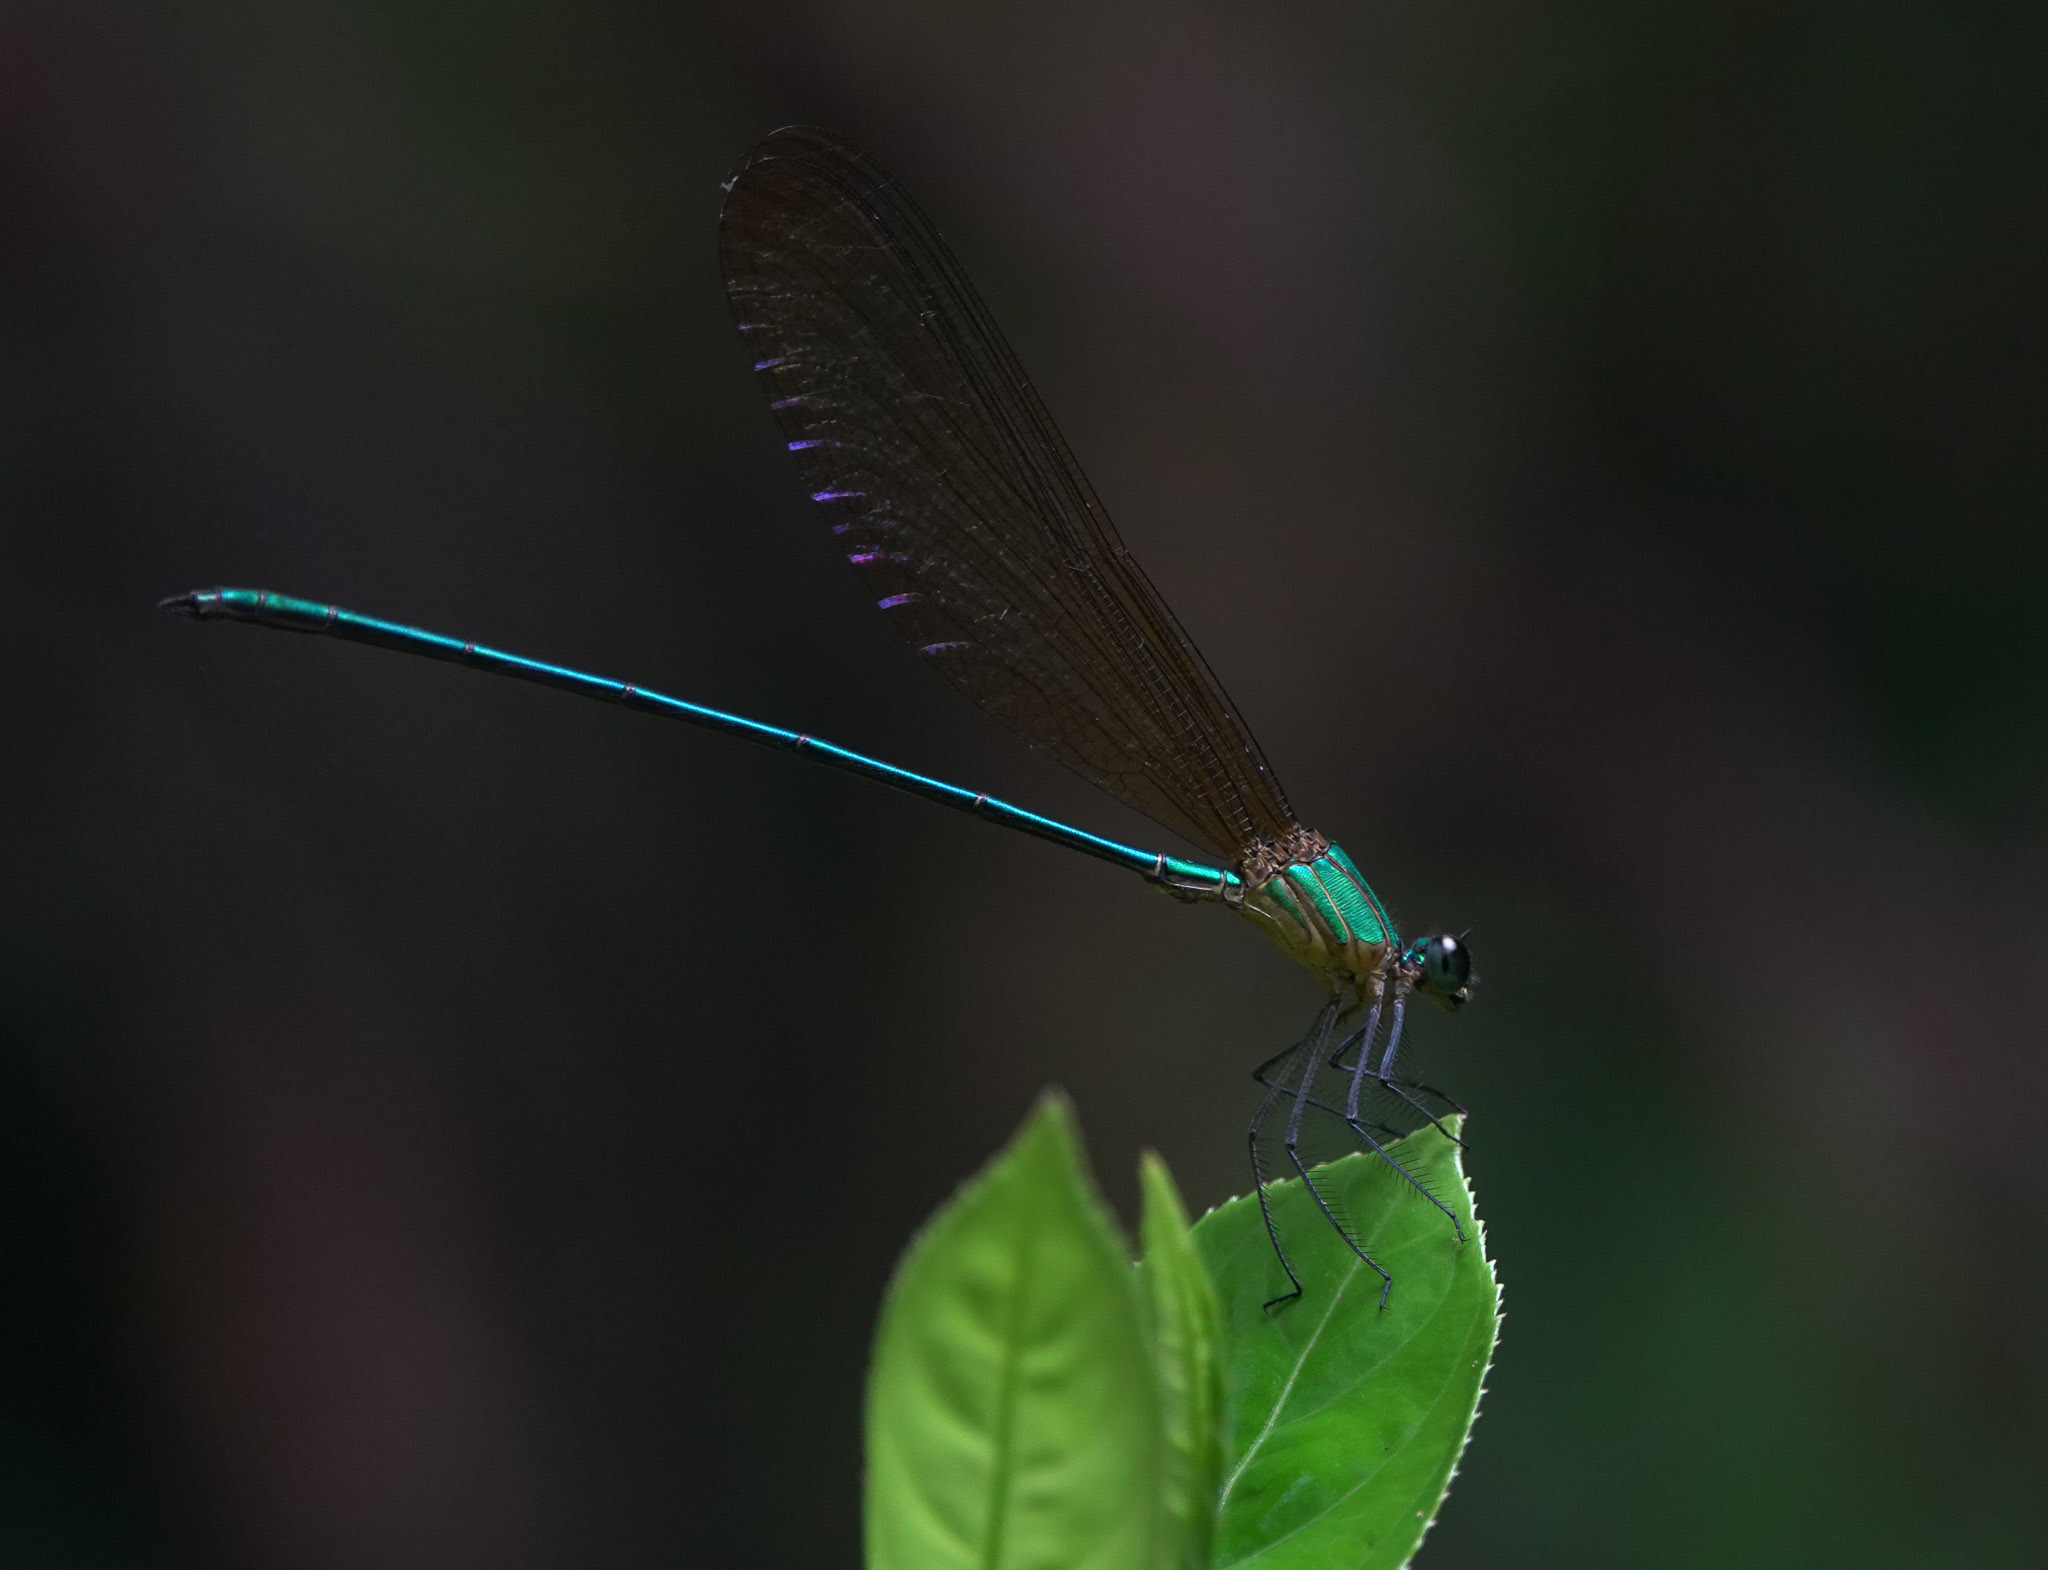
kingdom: Animalia
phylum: Arthropoda
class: Insecta
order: Odonata
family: Calopterygidae
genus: Vestalis
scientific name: Vestalis gracilis
